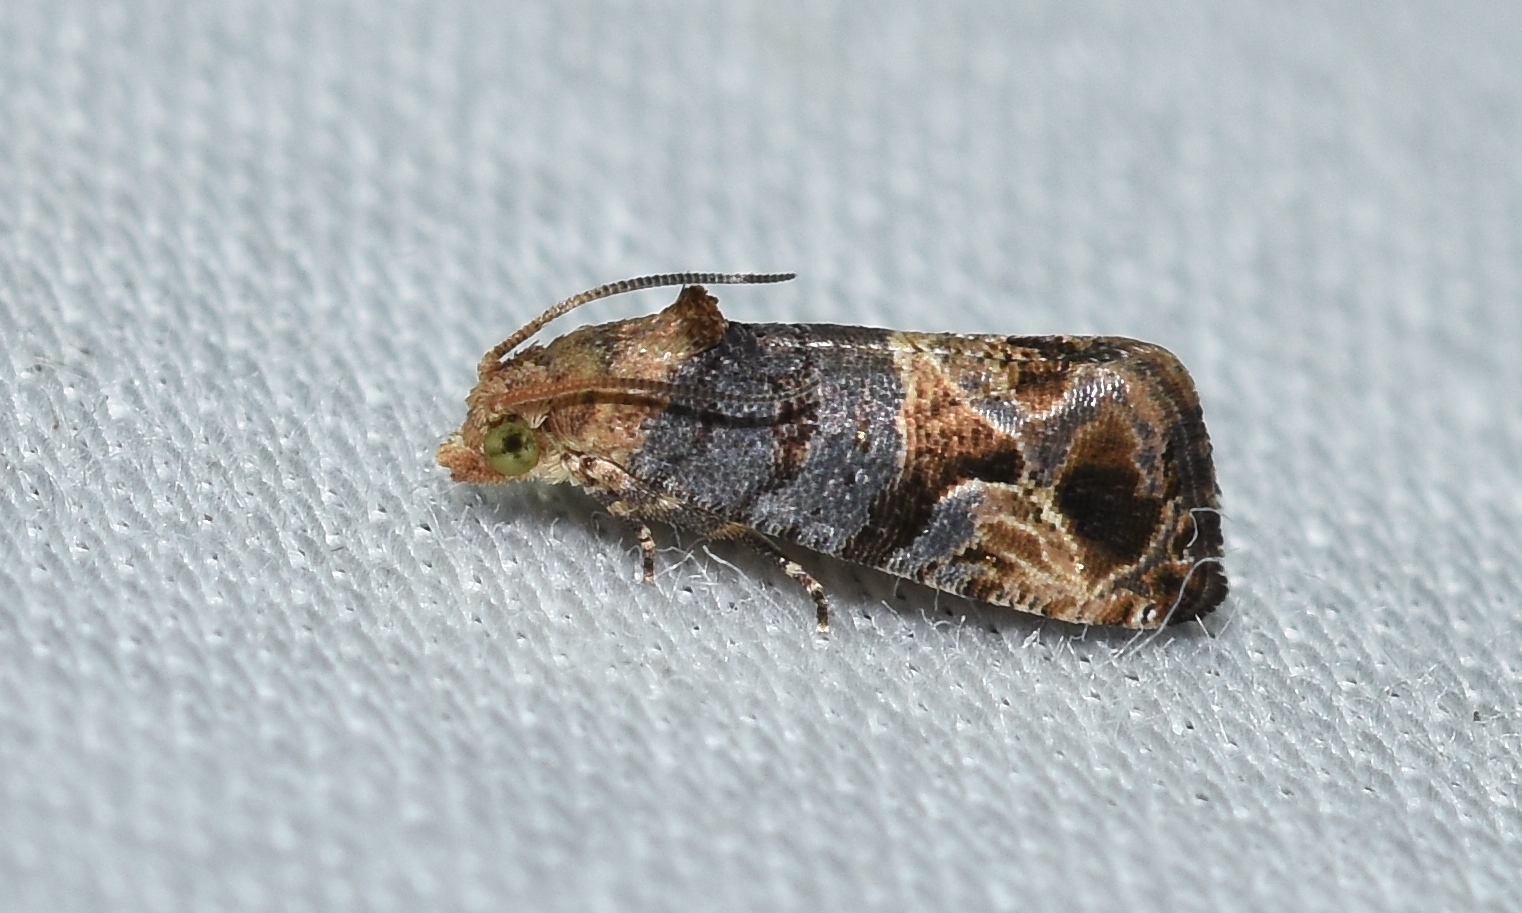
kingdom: Animalia
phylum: Arthropoda
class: Insecta
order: Lepidoptera
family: Tortricidae
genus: Paralobesia
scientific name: Paralobesia viteana
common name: Grape berry moth
